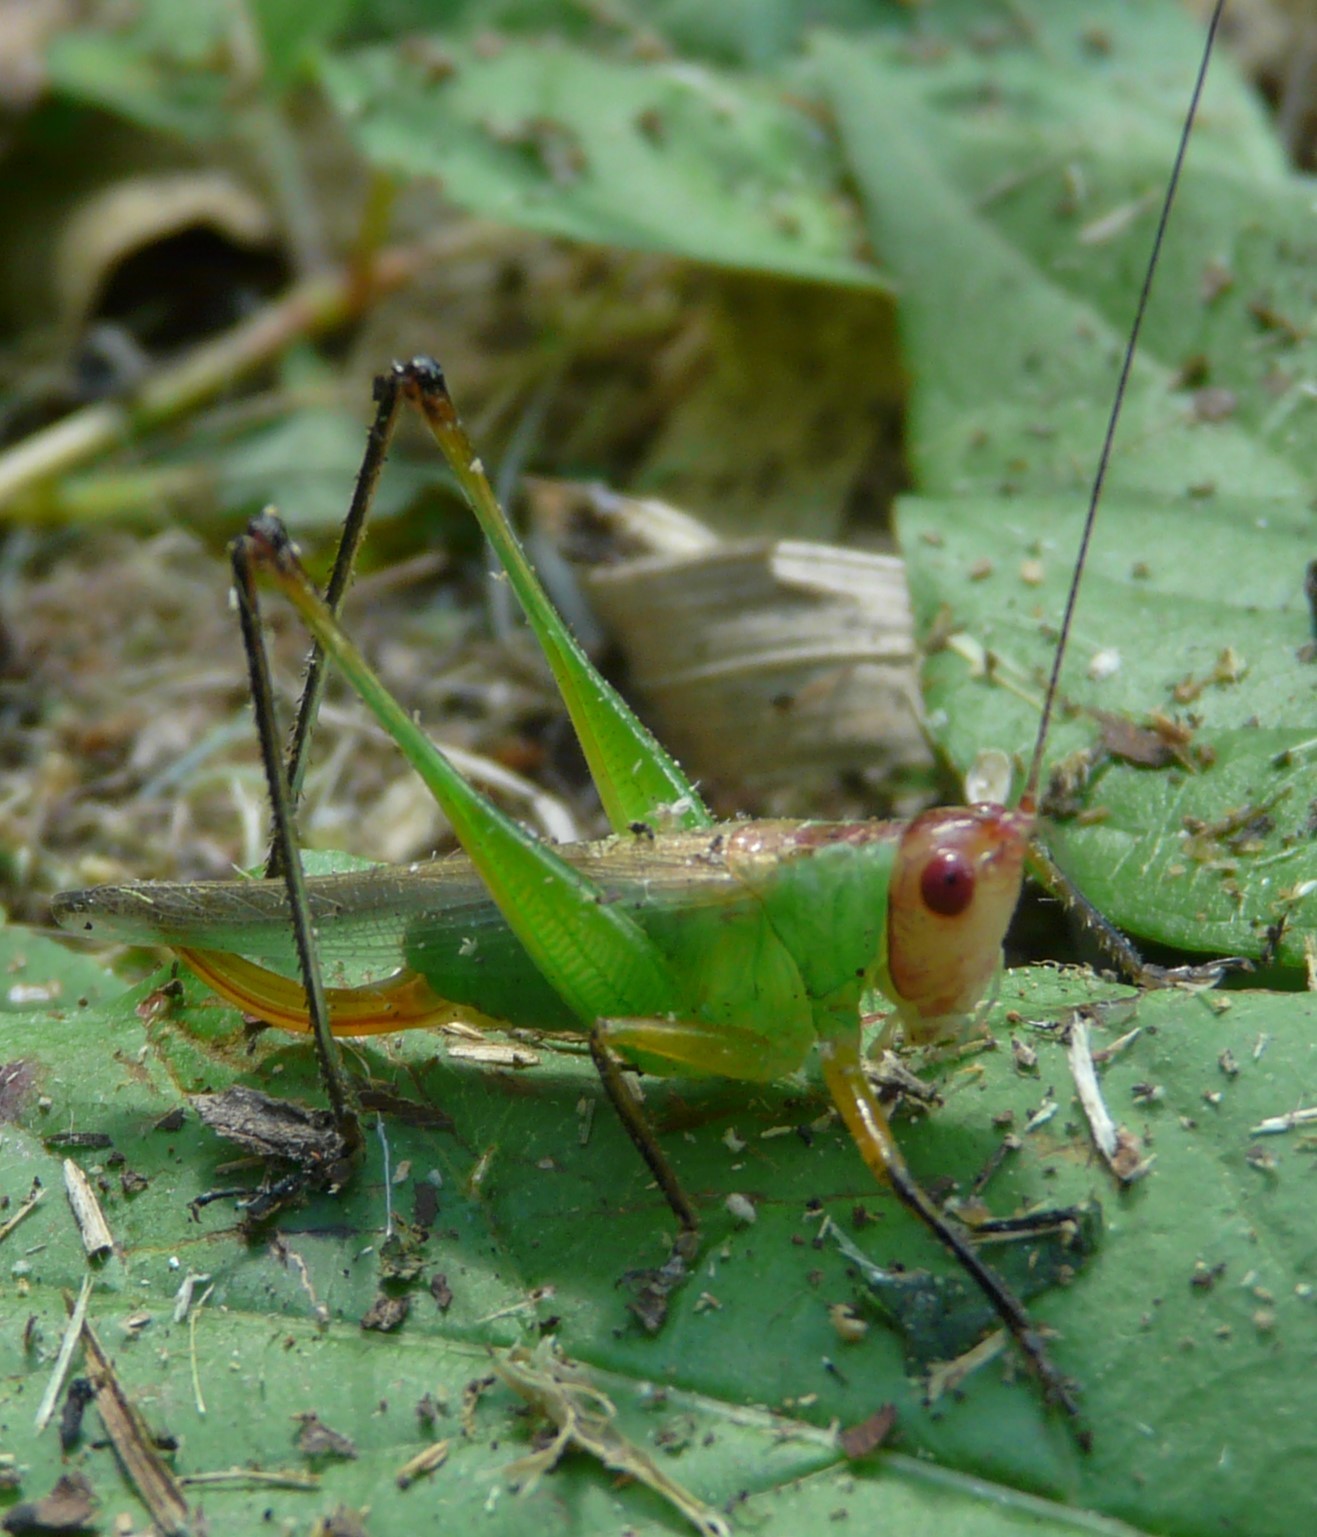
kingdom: Animalia
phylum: Arthropoda
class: Insecta
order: Orthoptera
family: Tettigoniidae
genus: Orchelimum
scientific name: Orchelimum nigripes
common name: Black-legged meadow katydid
